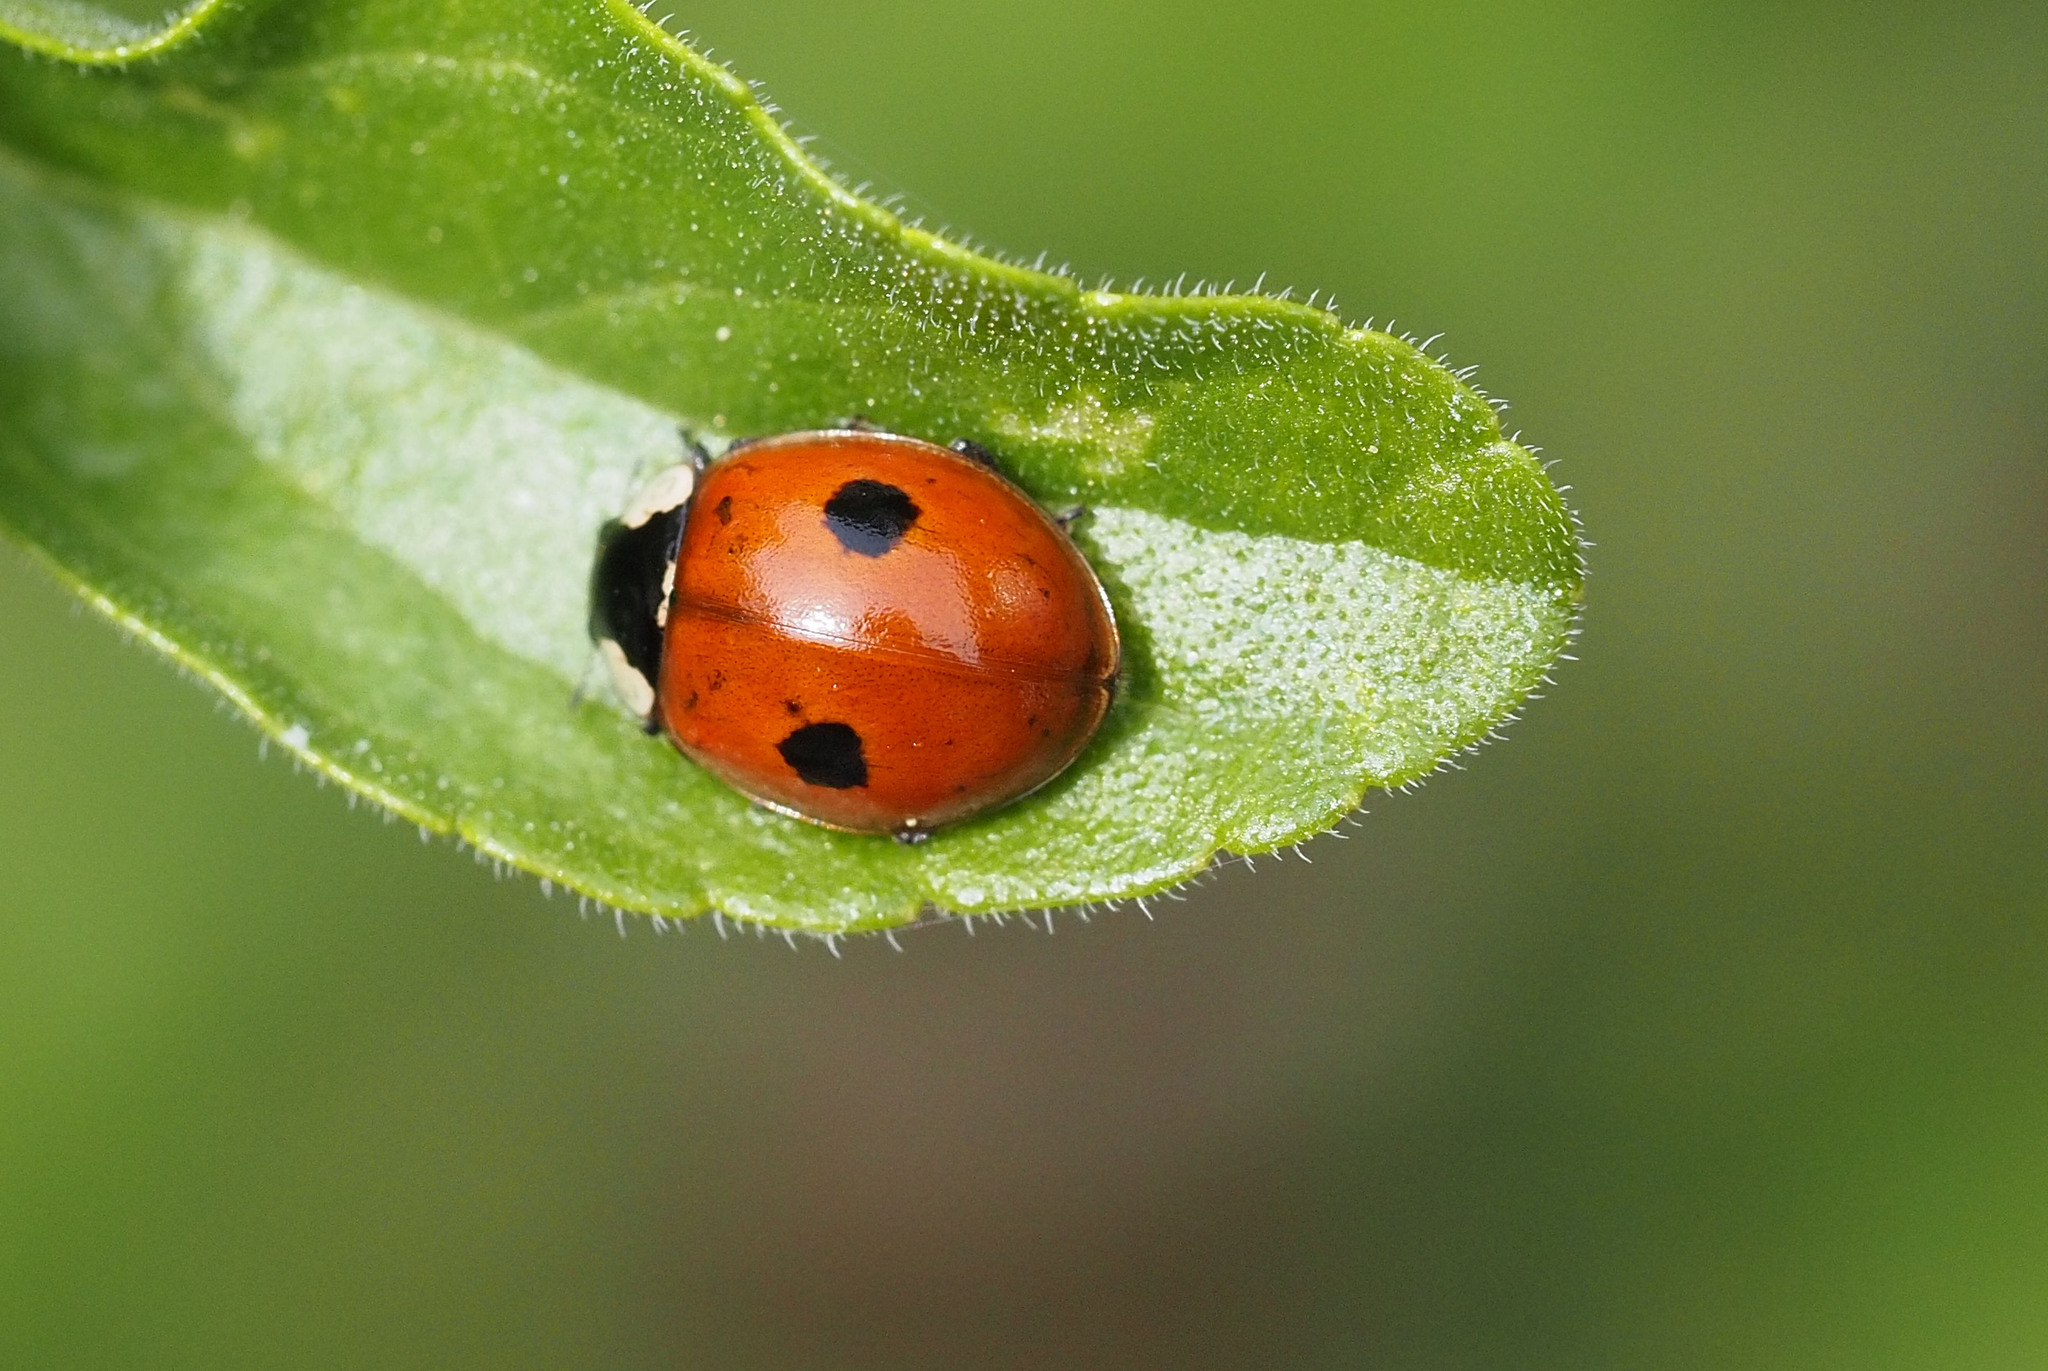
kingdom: Animalia
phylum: Arthropoda
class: Insecta
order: Coleoptera
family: Coccinellidae
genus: Adalia
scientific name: Adalia bipunctata
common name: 2-spot ladybird
